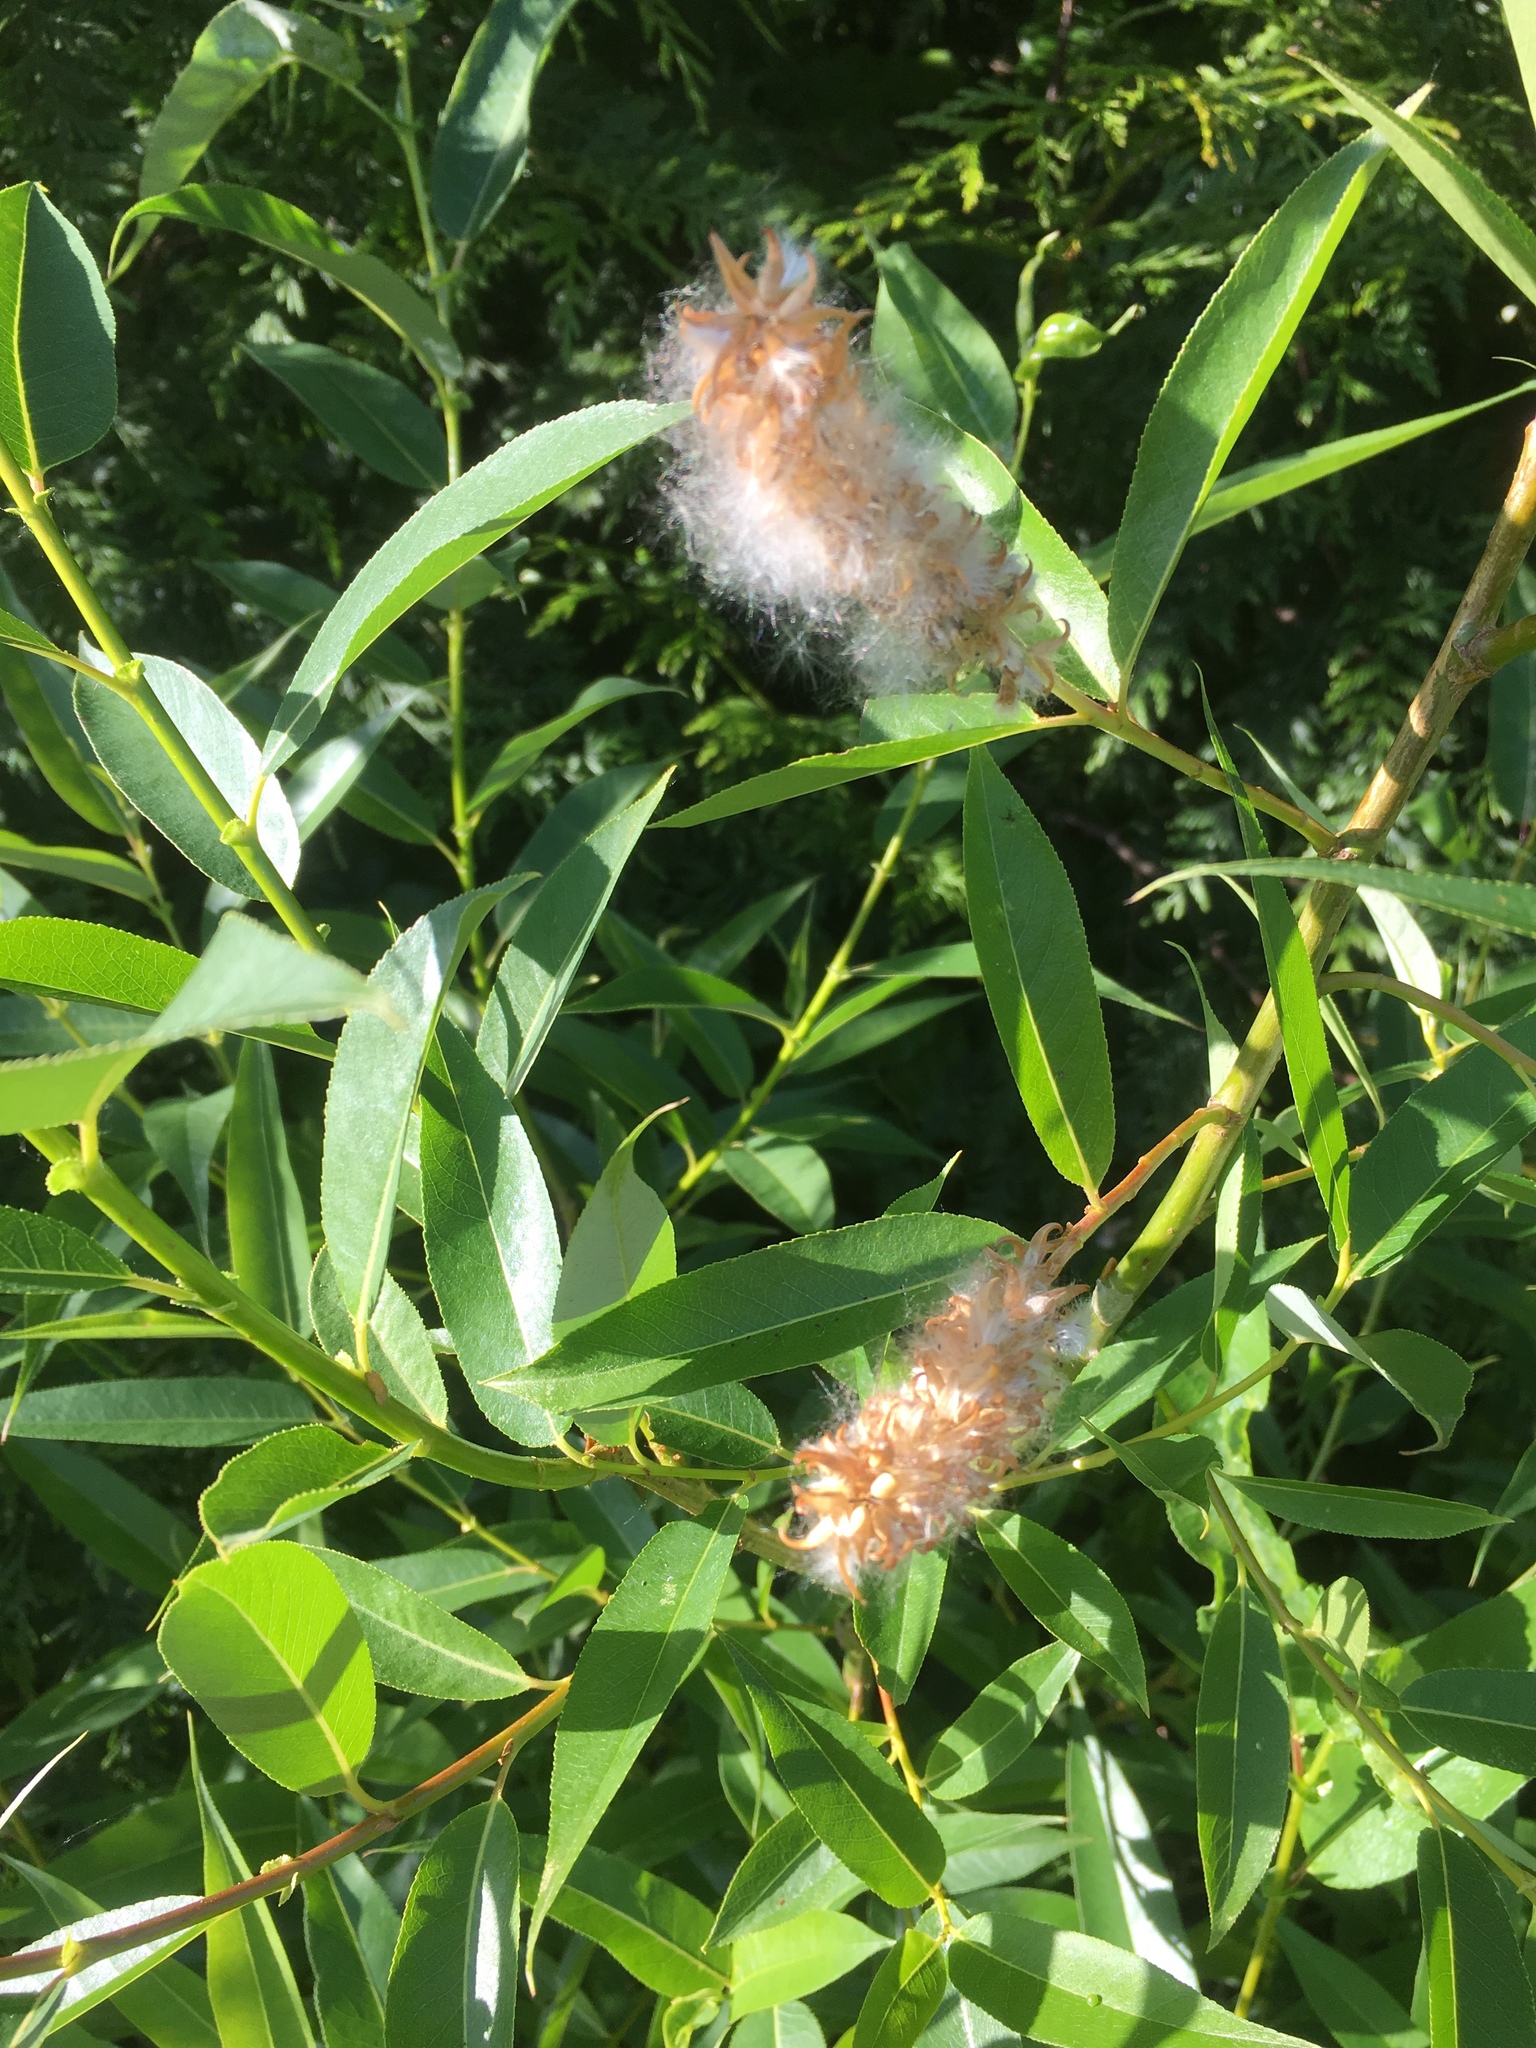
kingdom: Plantae
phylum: Tracheophyta
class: Magnoliopsida
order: Malpighiales
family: Salicaceae
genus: Salix
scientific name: Salix lucida
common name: Shining willow
